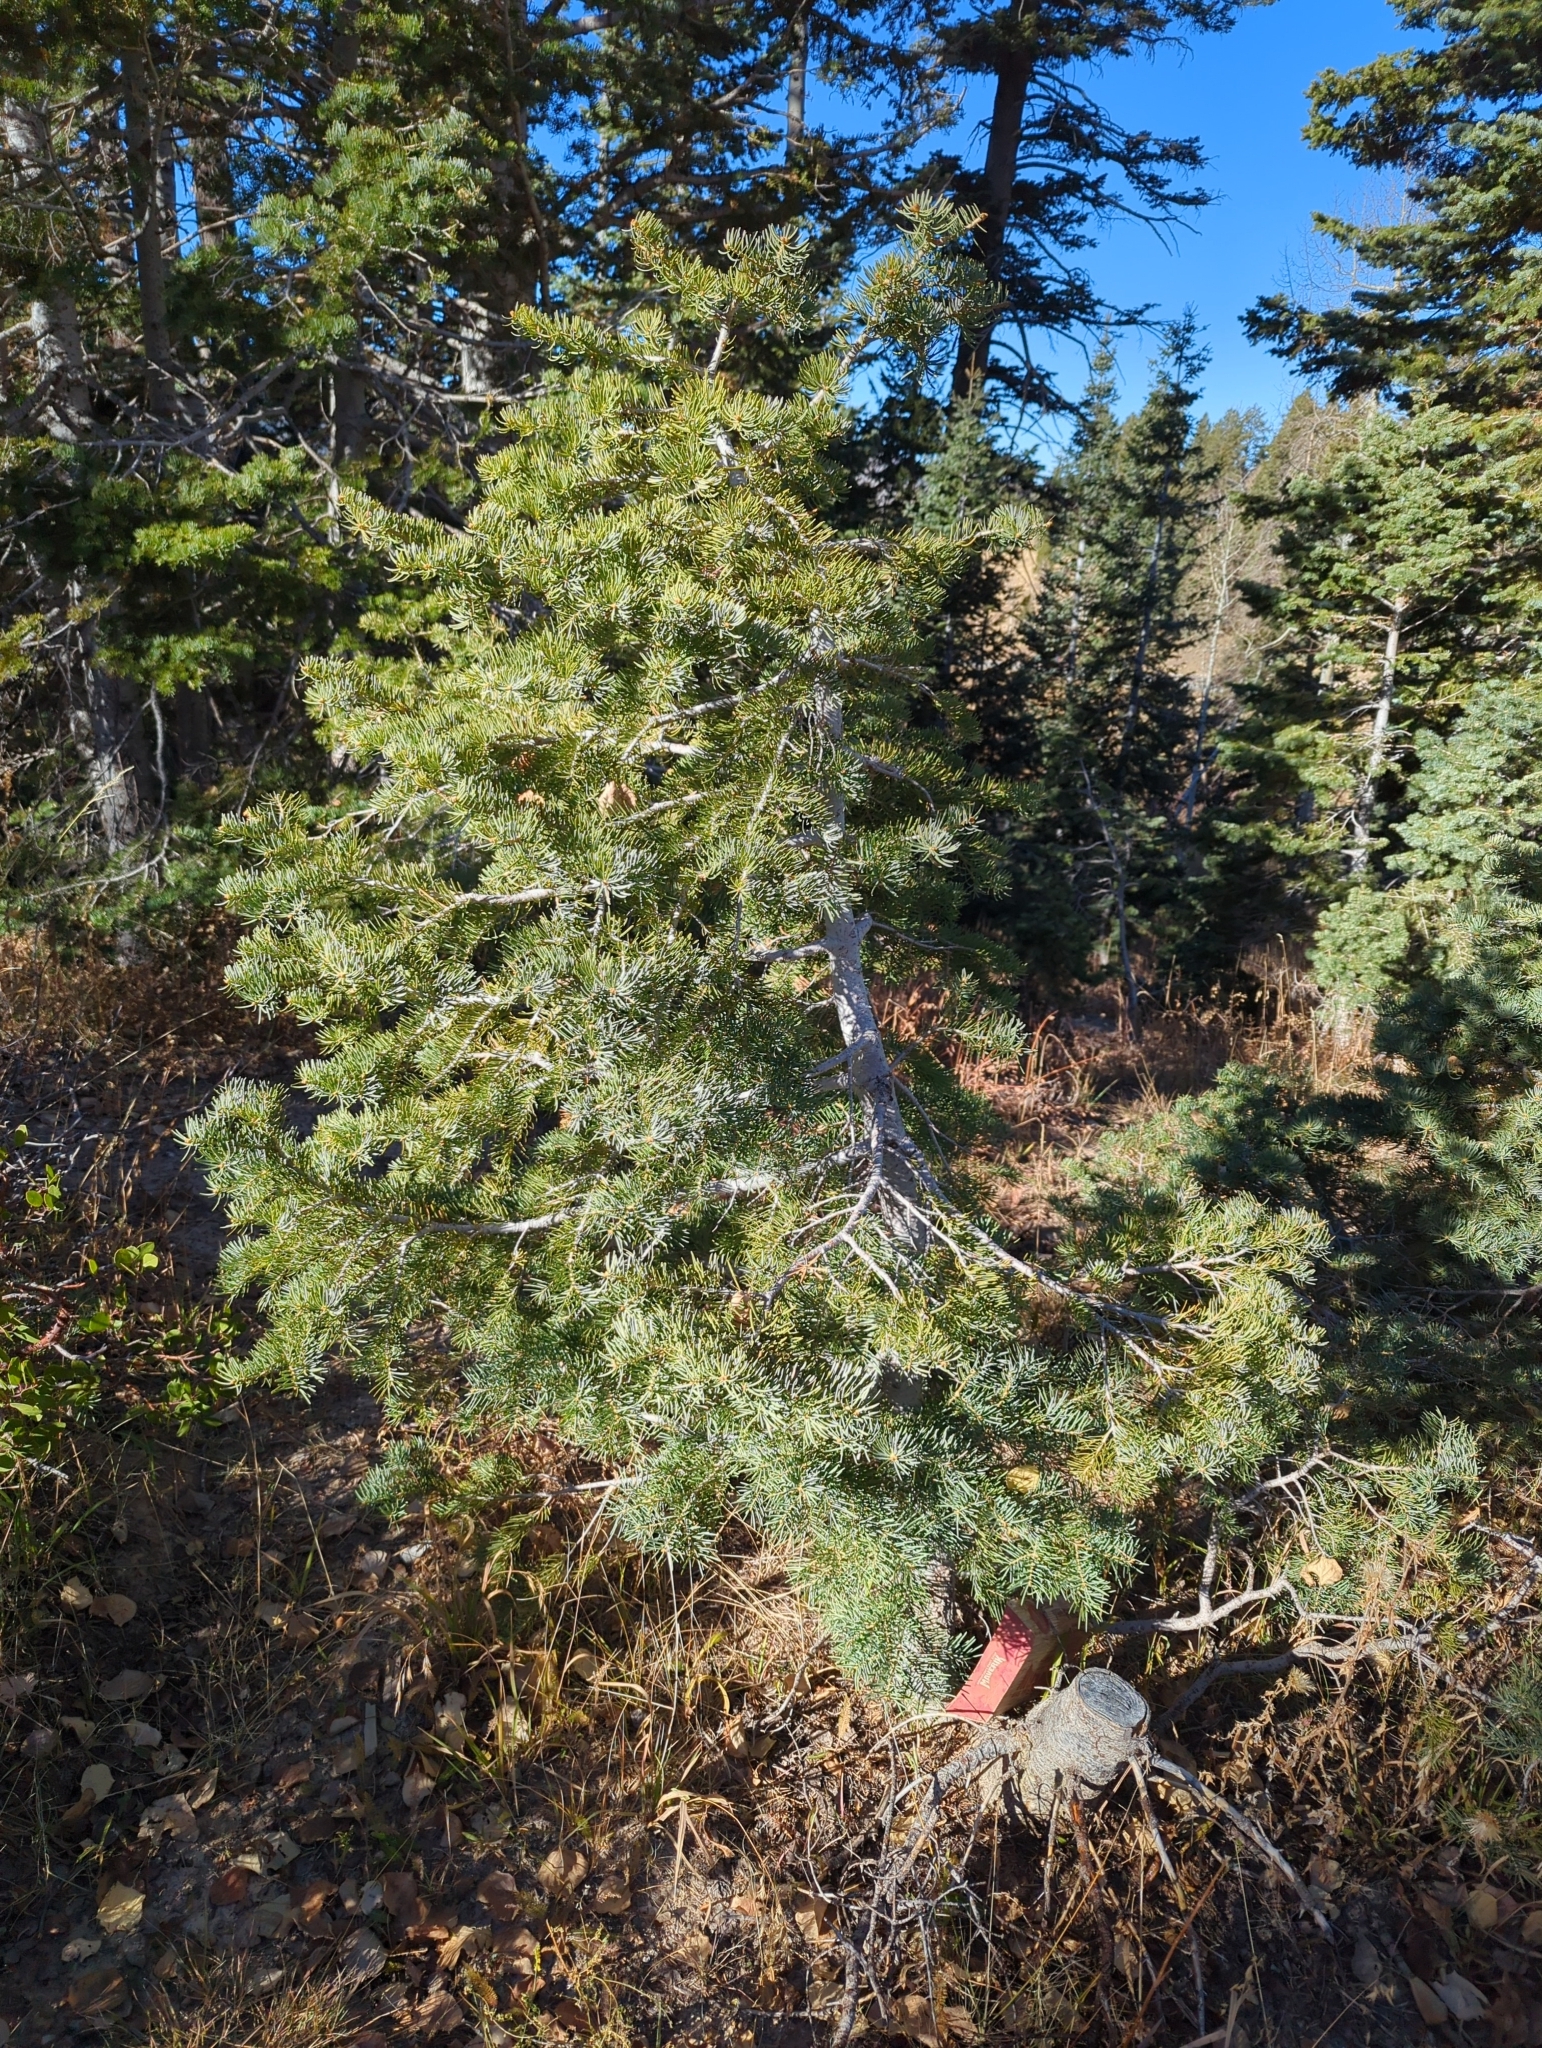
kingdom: Plantae
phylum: Tracheophyta
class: Pinopsida
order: Pinales
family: Pinaceae
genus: Abies
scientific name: Abies concolor
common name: Colorado fir
